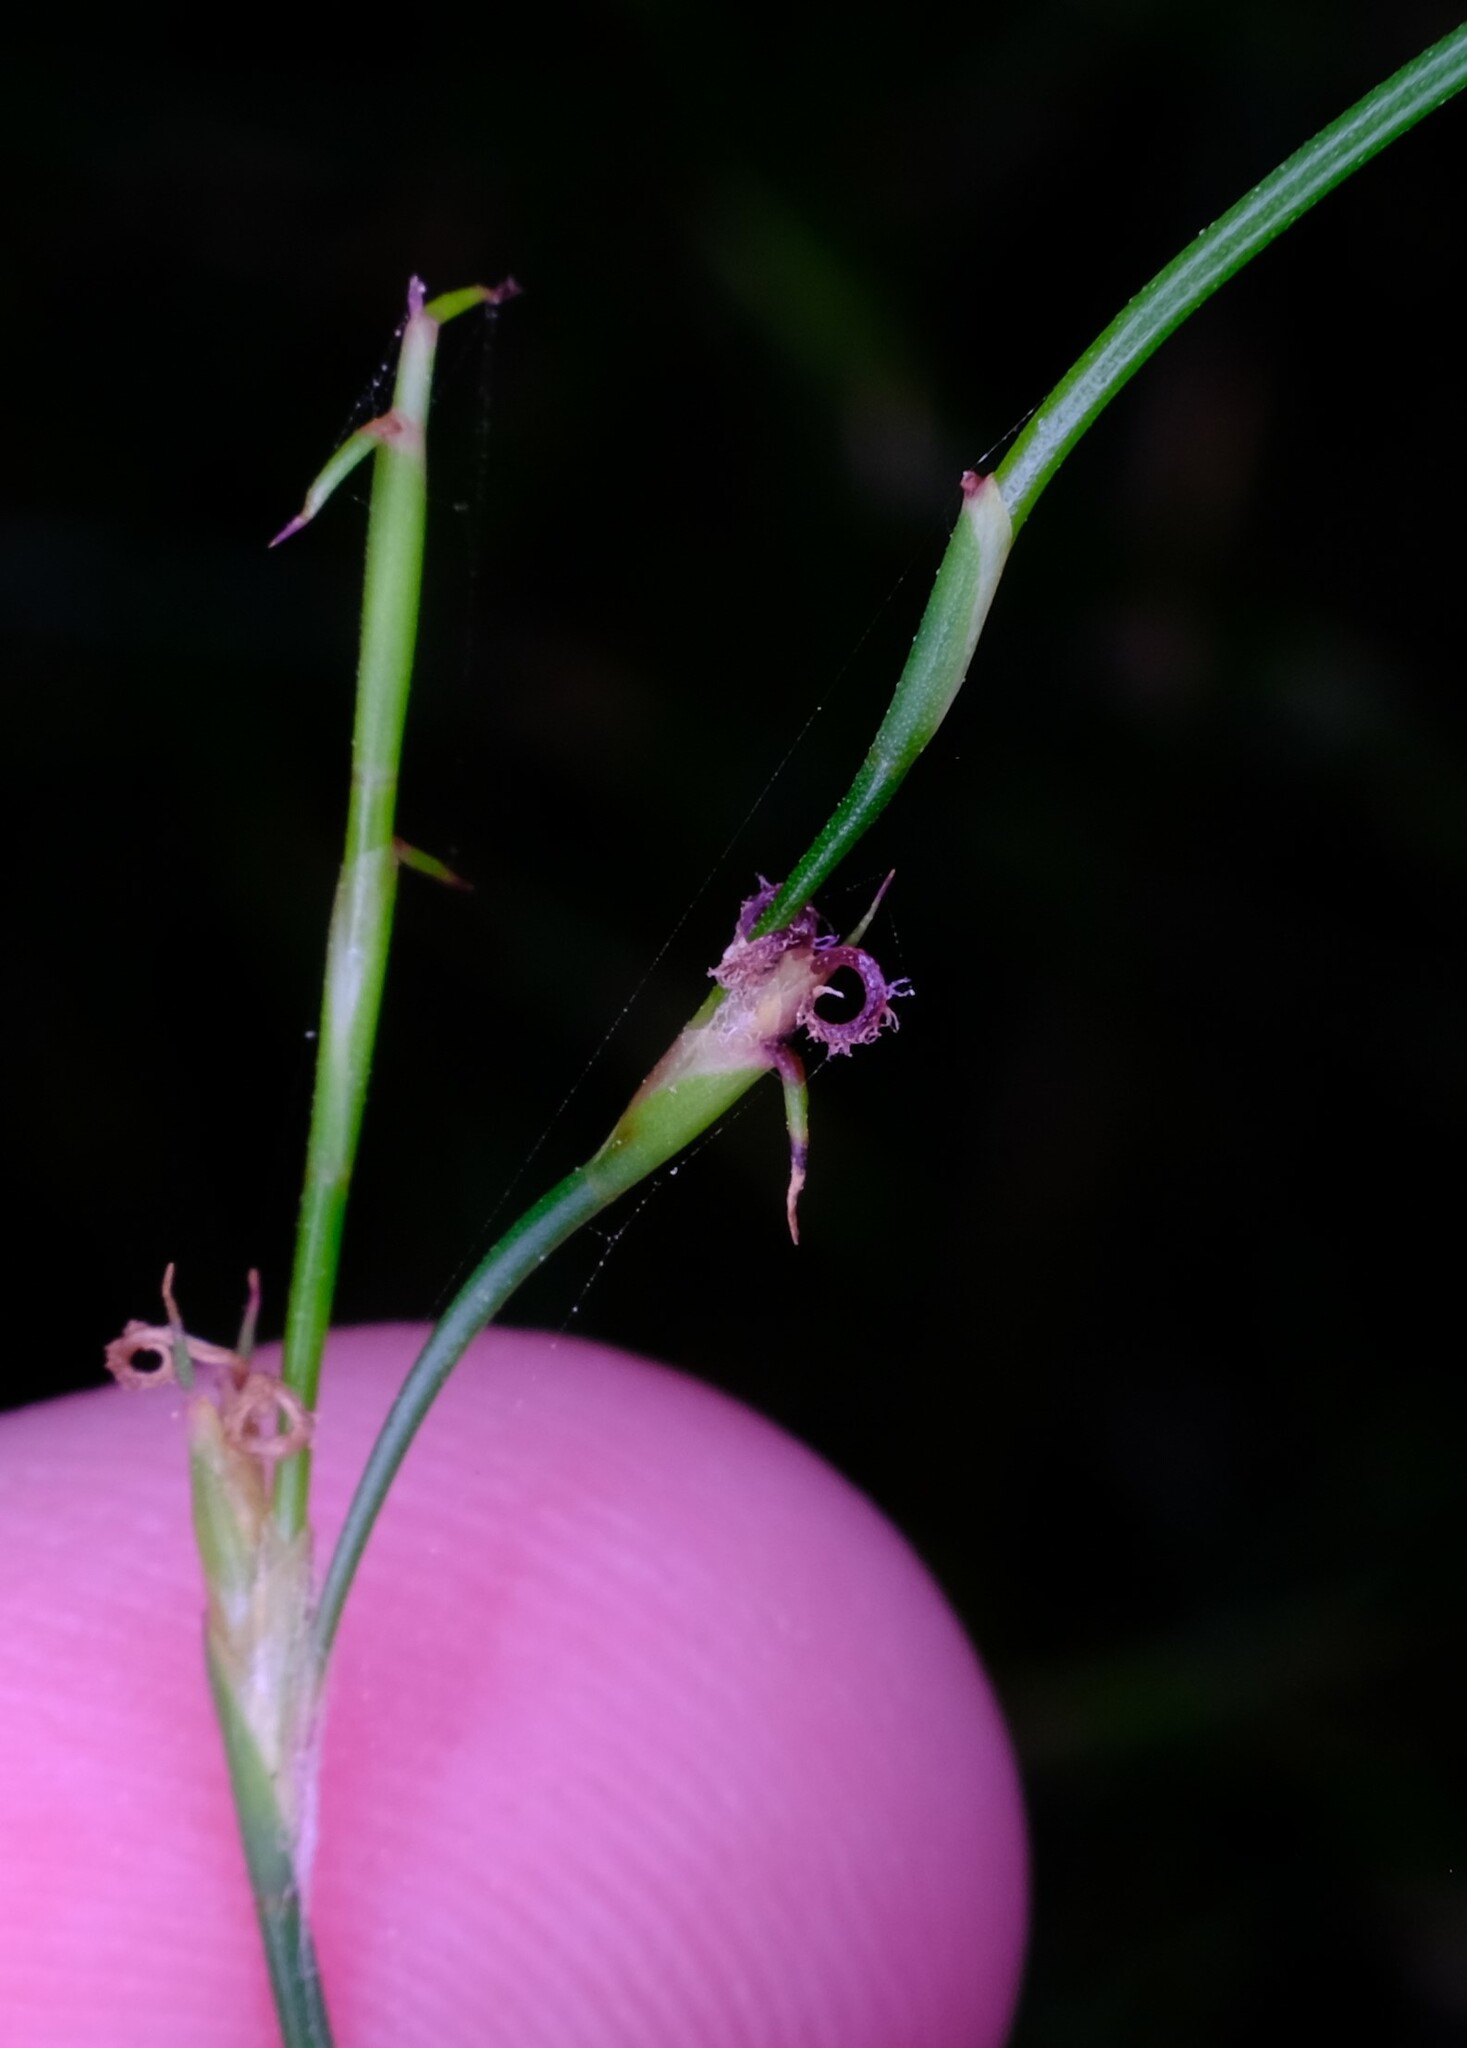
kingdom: Plantae
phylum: Tracheophyta
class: Liliopsida
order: Poales
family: Restionaceae
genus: Empodisma
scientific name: Empodisma minus
